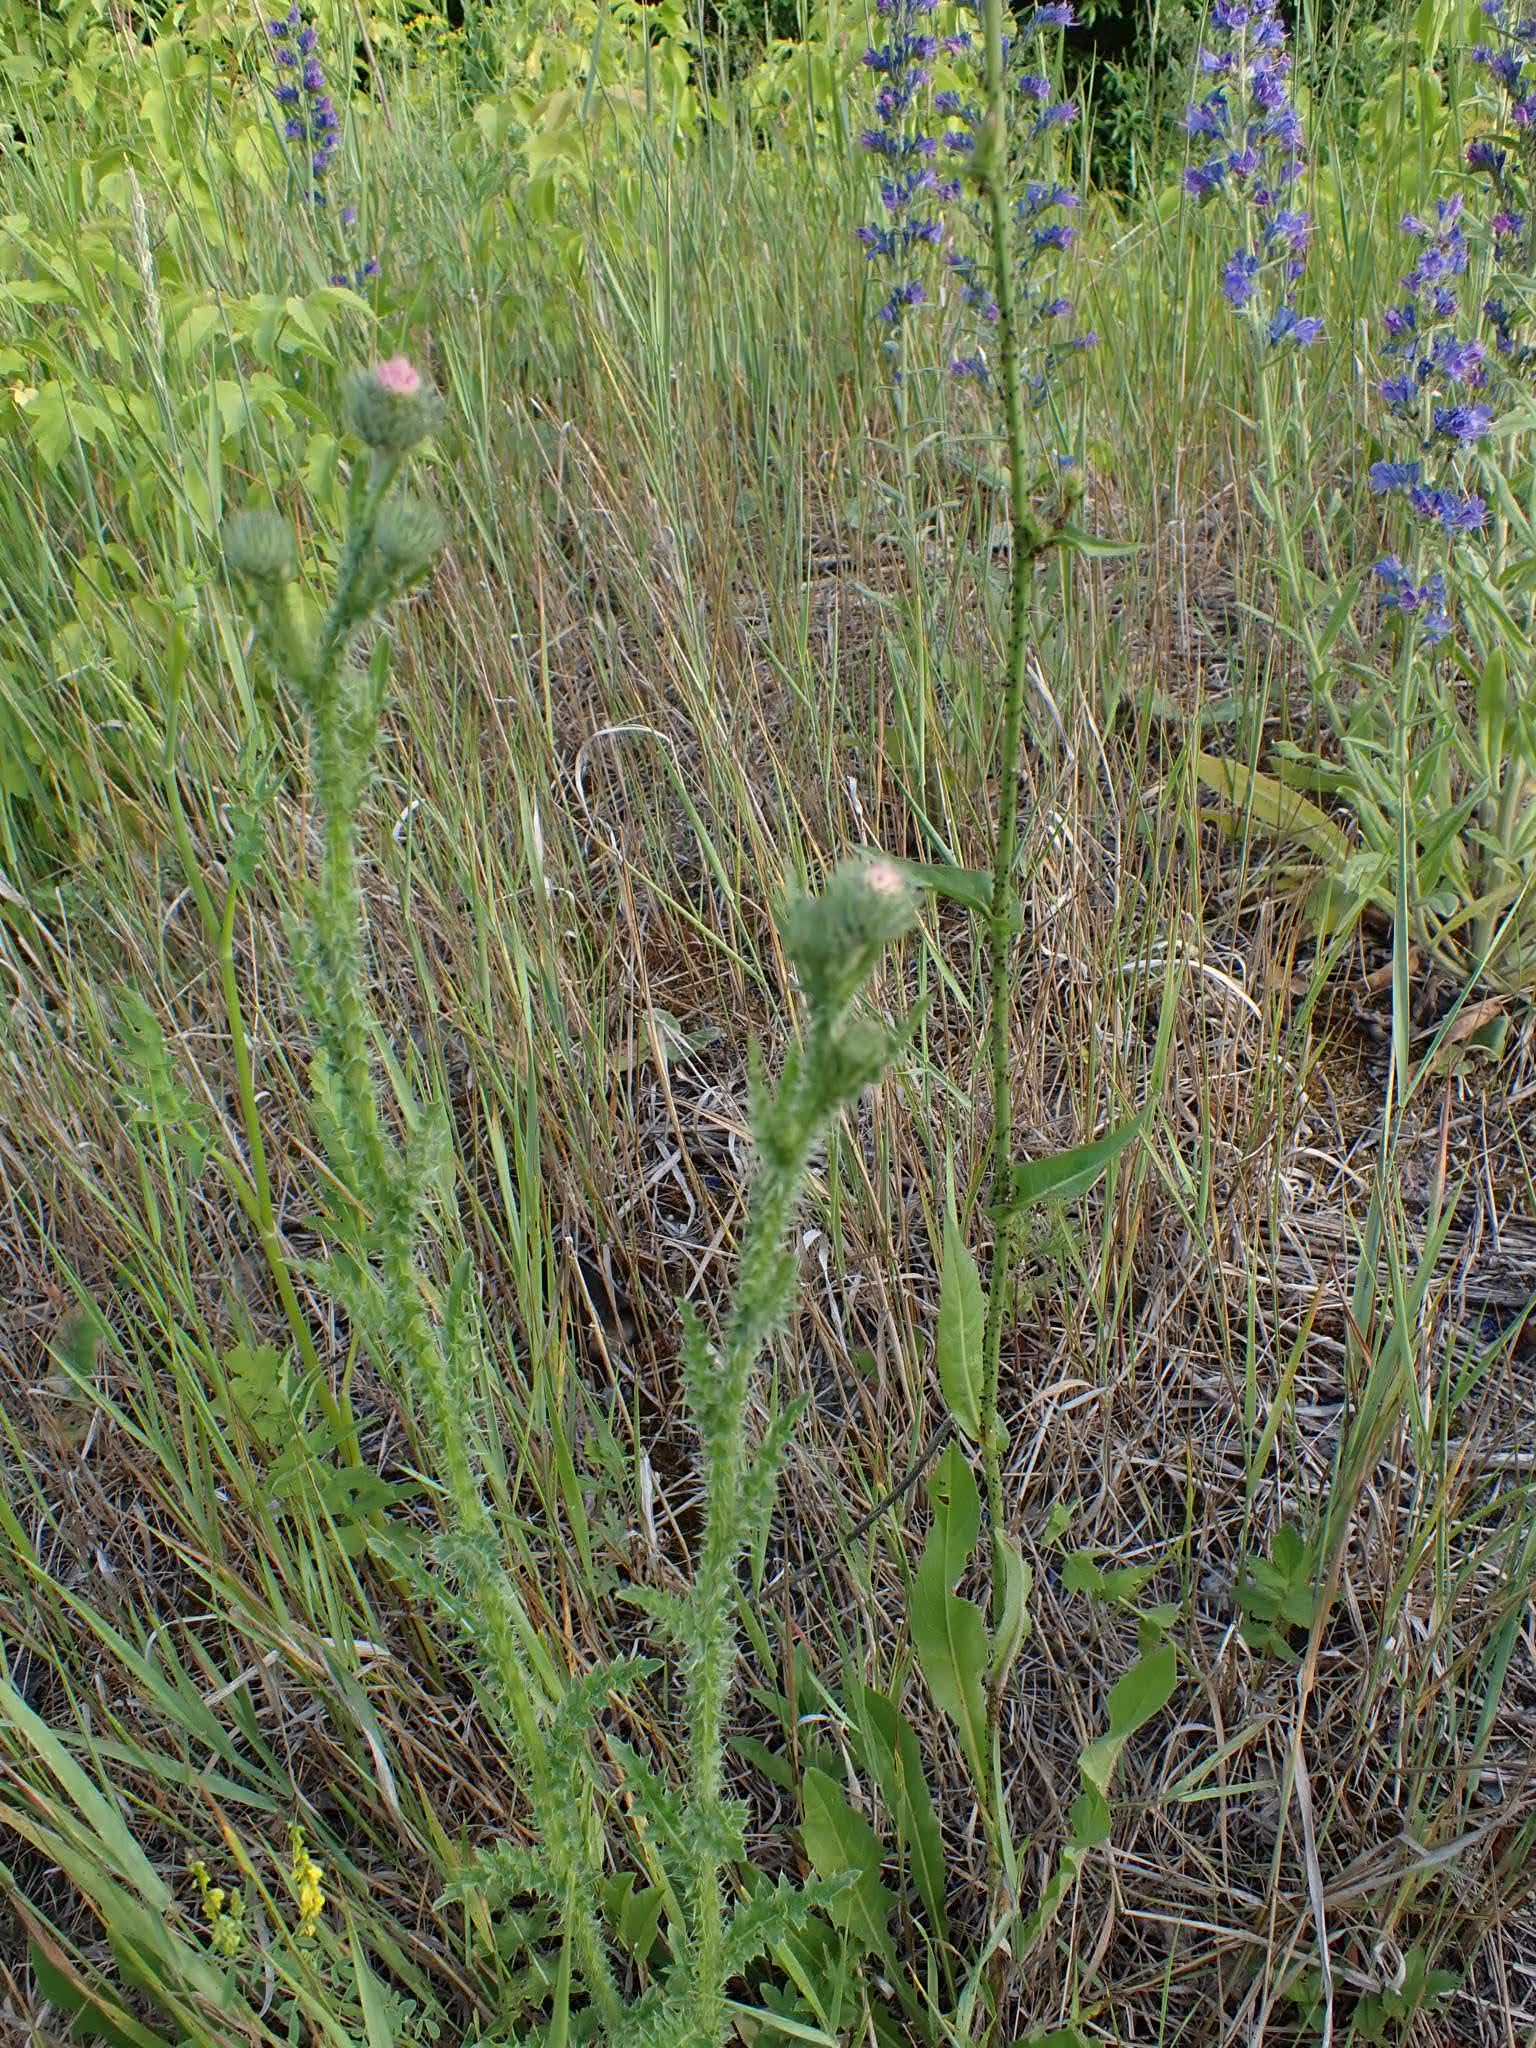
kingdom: Plantae
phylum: Tracheophyta
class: Magnoliopsida
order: Asterales
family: Asteraceae
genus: Carduus
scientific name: Carduus acanthoides
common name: Plumeless thistle
